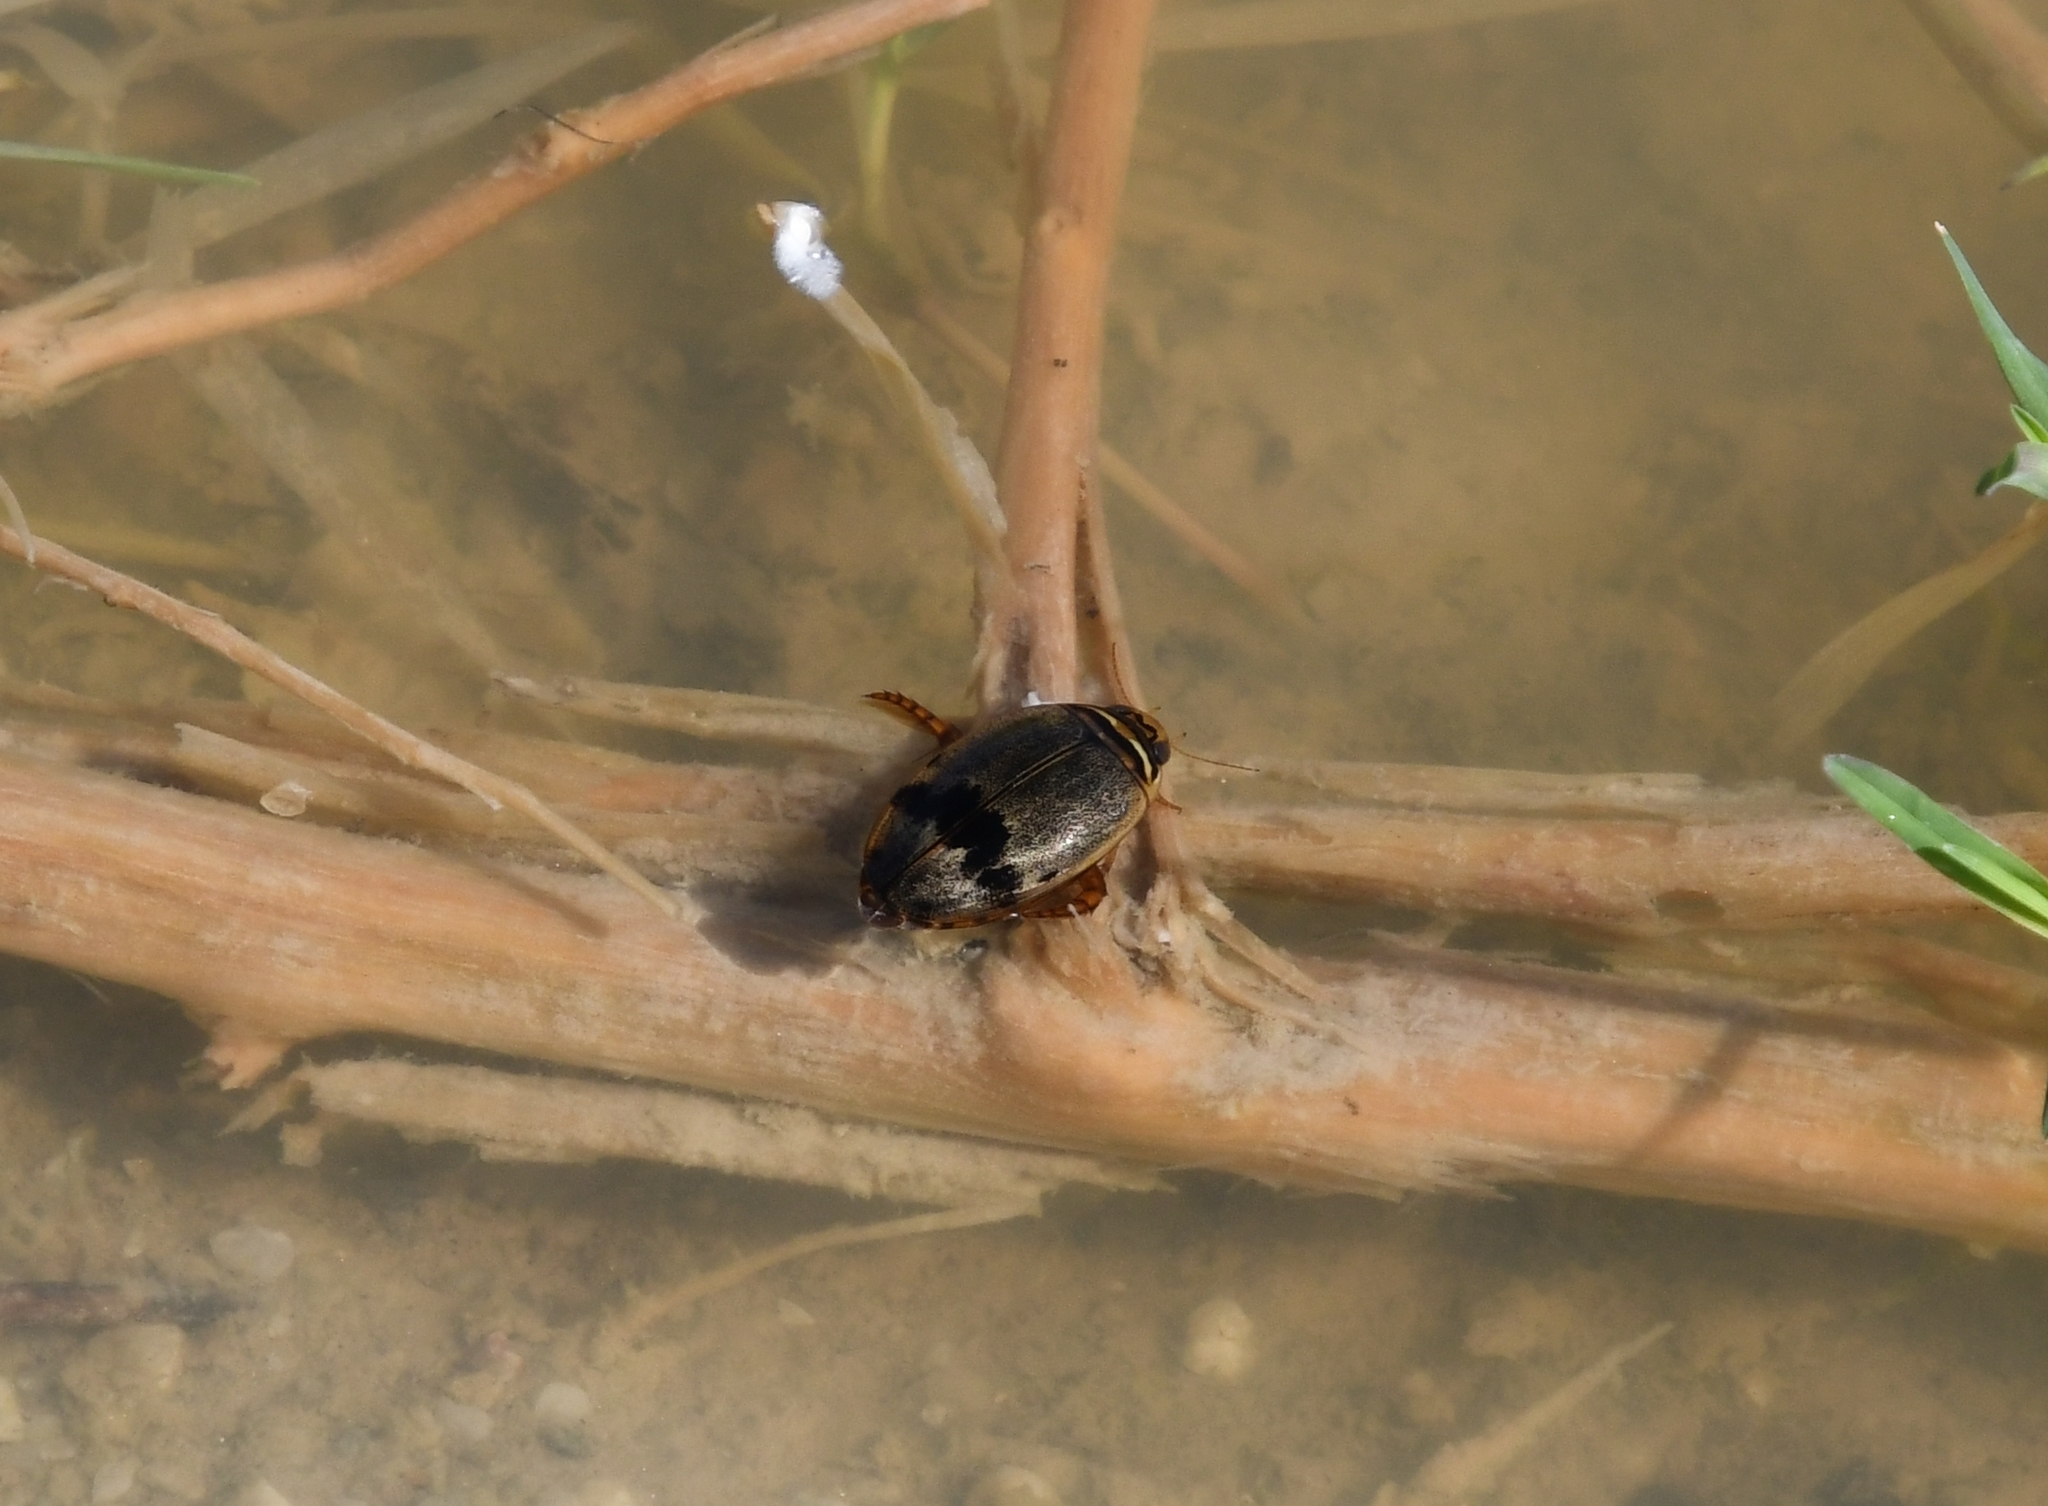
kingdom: Animalia
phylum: Arthropoda
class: Insecta
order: Coleoptera
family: Dytiscidae
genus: Thermonectus
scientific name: Thermonectus nigrofasciatus
